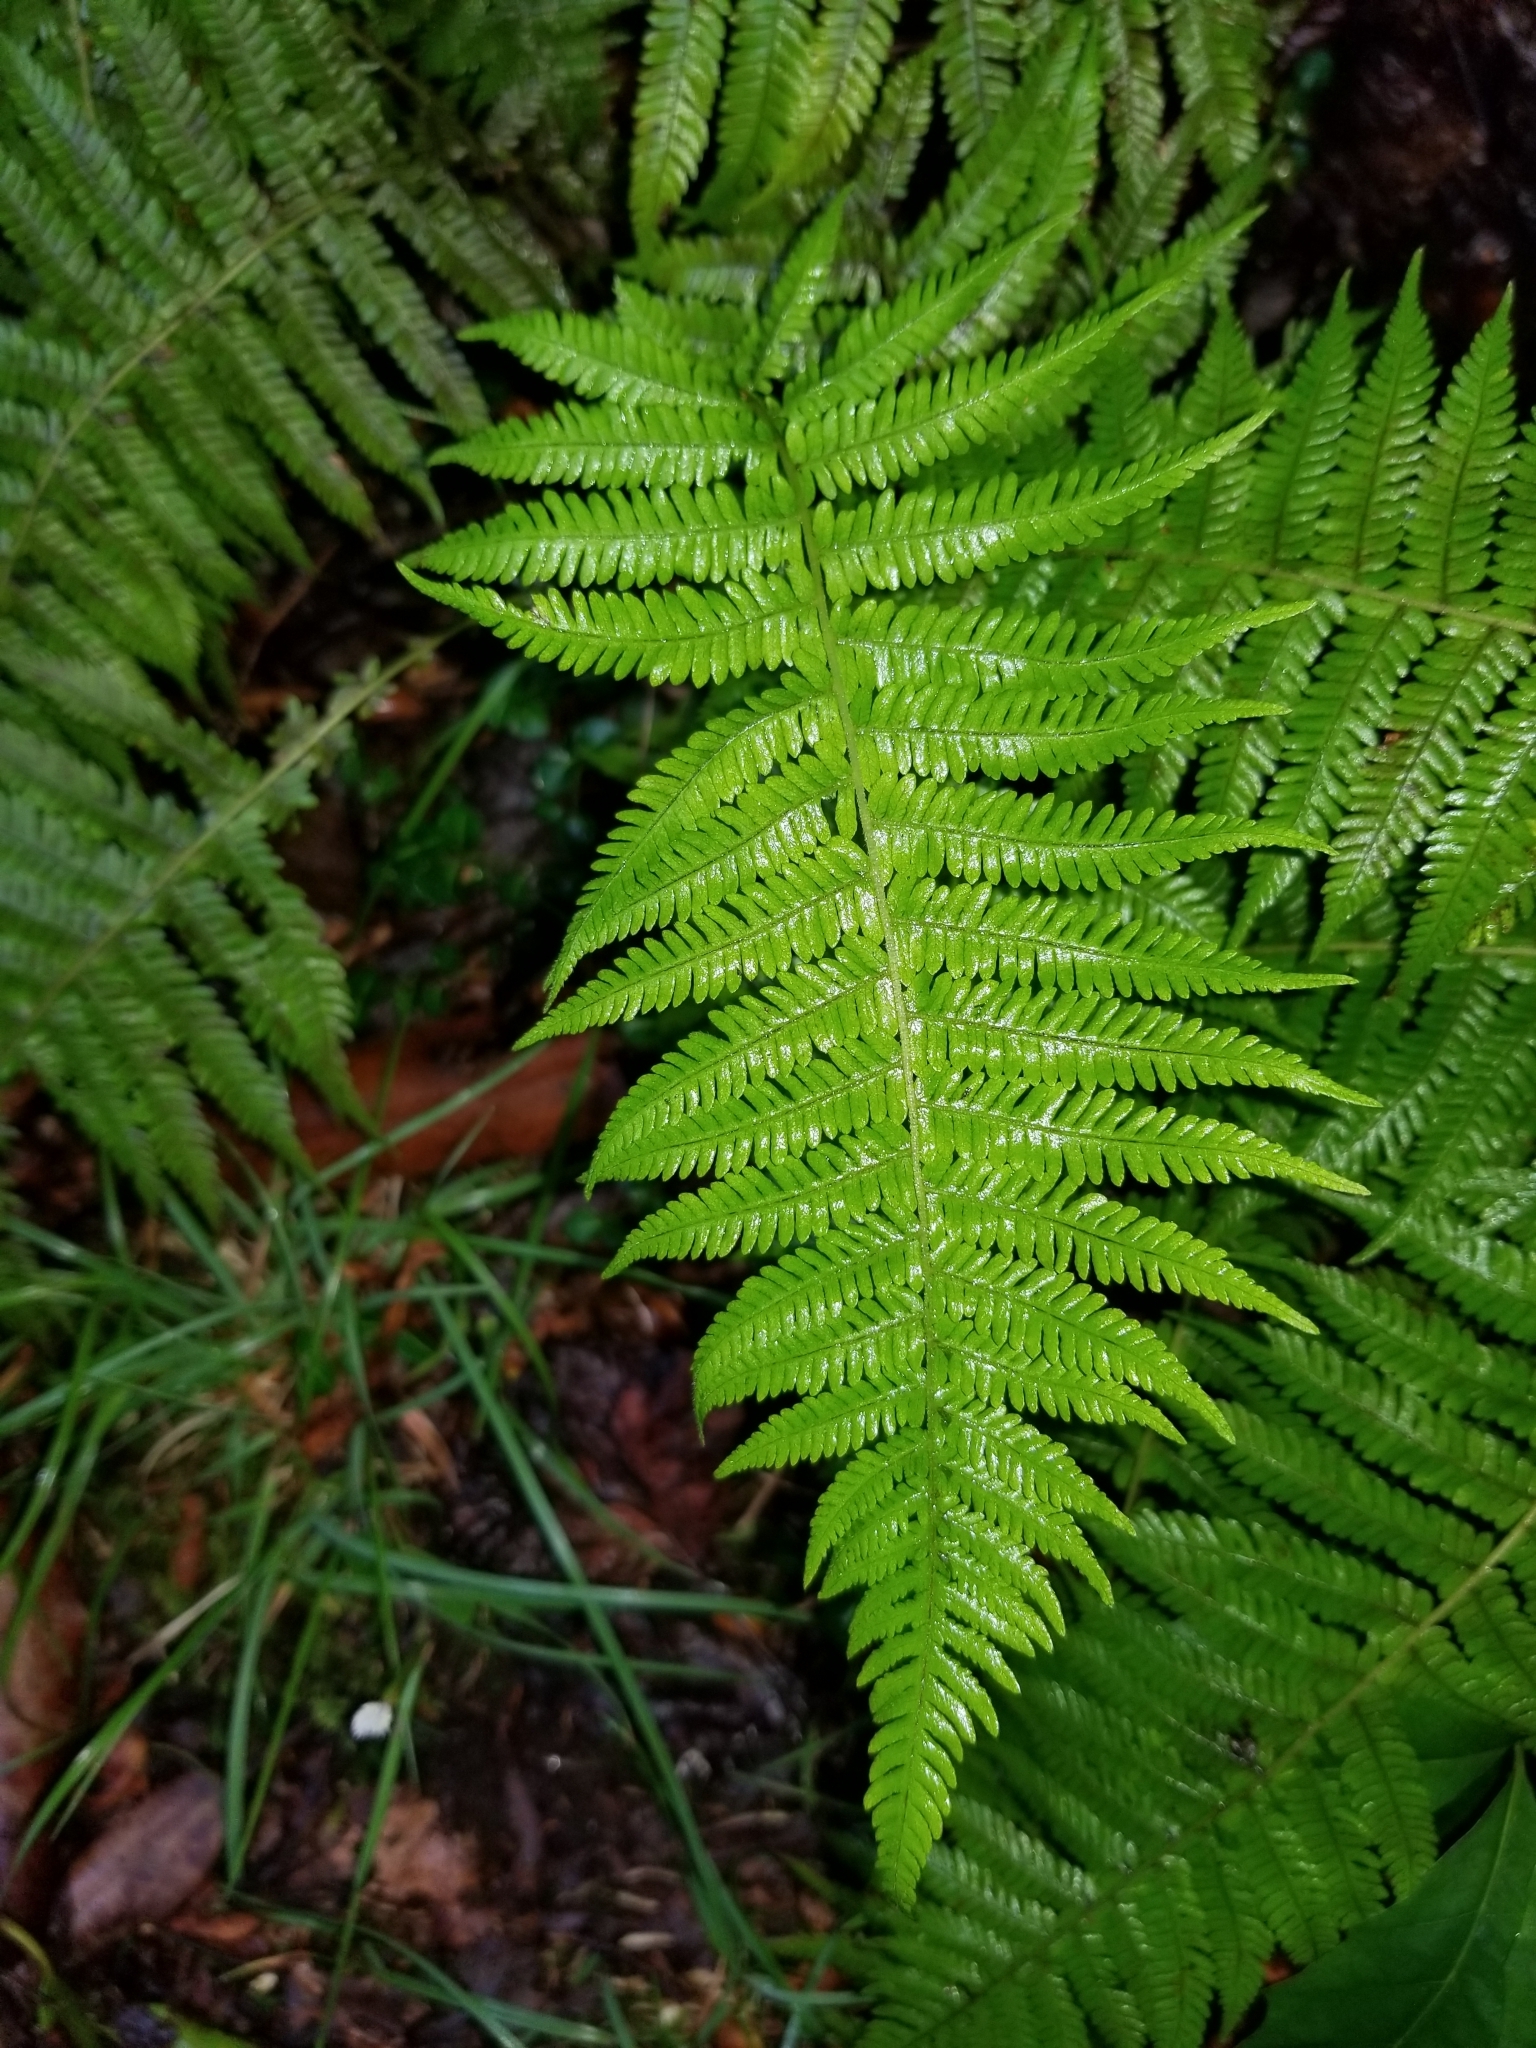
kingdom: Plantae
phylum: Tracheophyta
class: Polypodiopsida
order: Polypodiales
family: Thelypteridaceae
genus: Amauropelta
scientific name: Amauropelta noveboracensis
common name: New york fern
